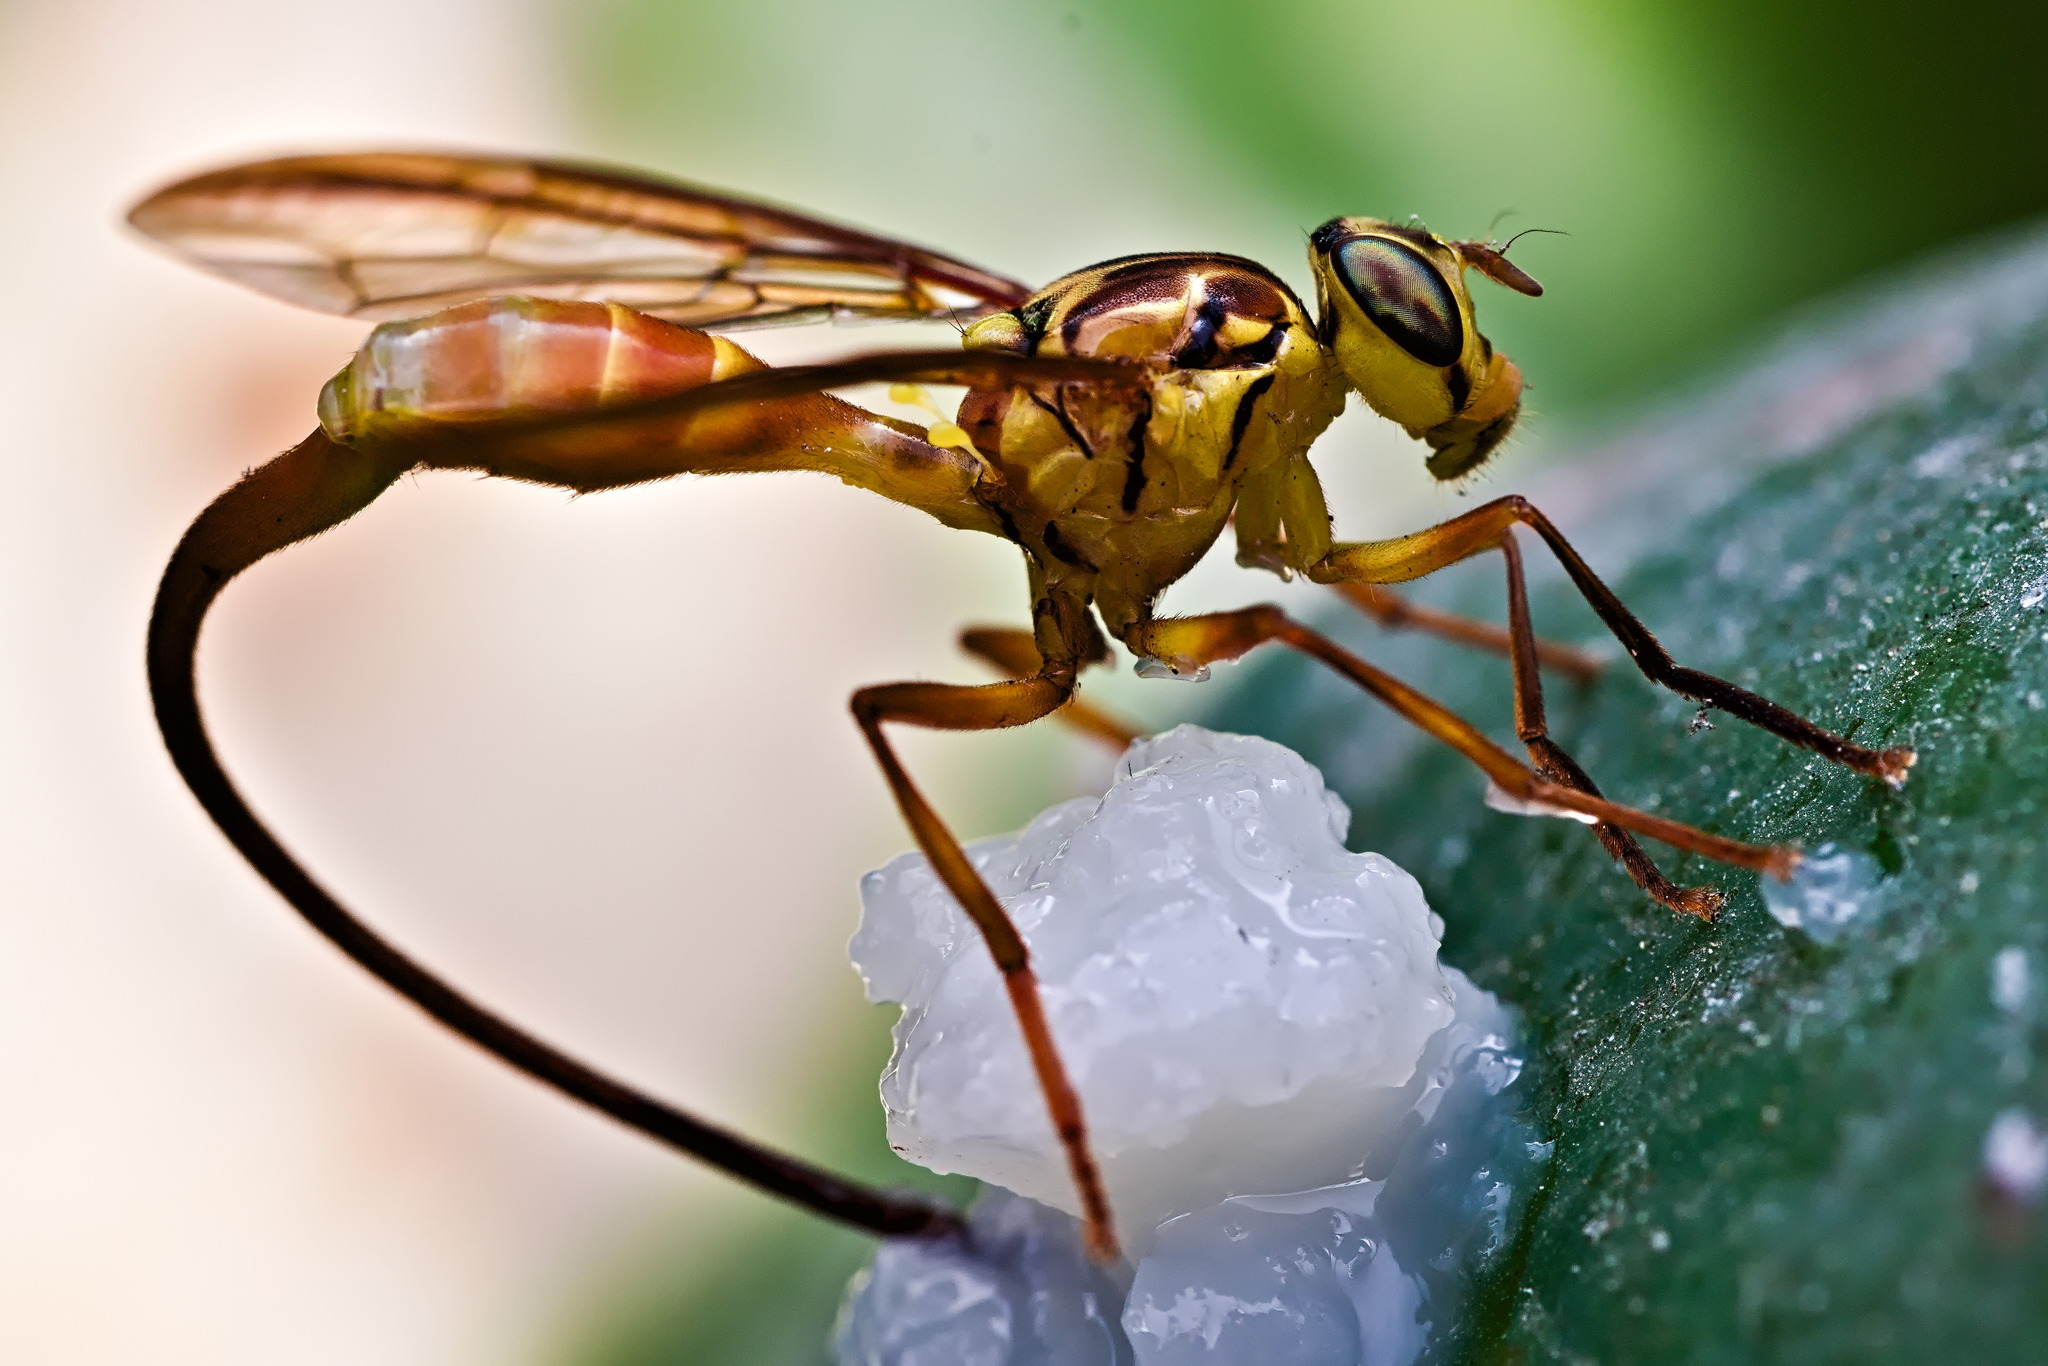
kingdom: Animalia
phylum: Arthropoda
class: Insecta
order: Diptera
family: Tephritidae
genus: Anastrepha
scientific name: Anastrepha curvicauda
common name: Papaya fruit fly
